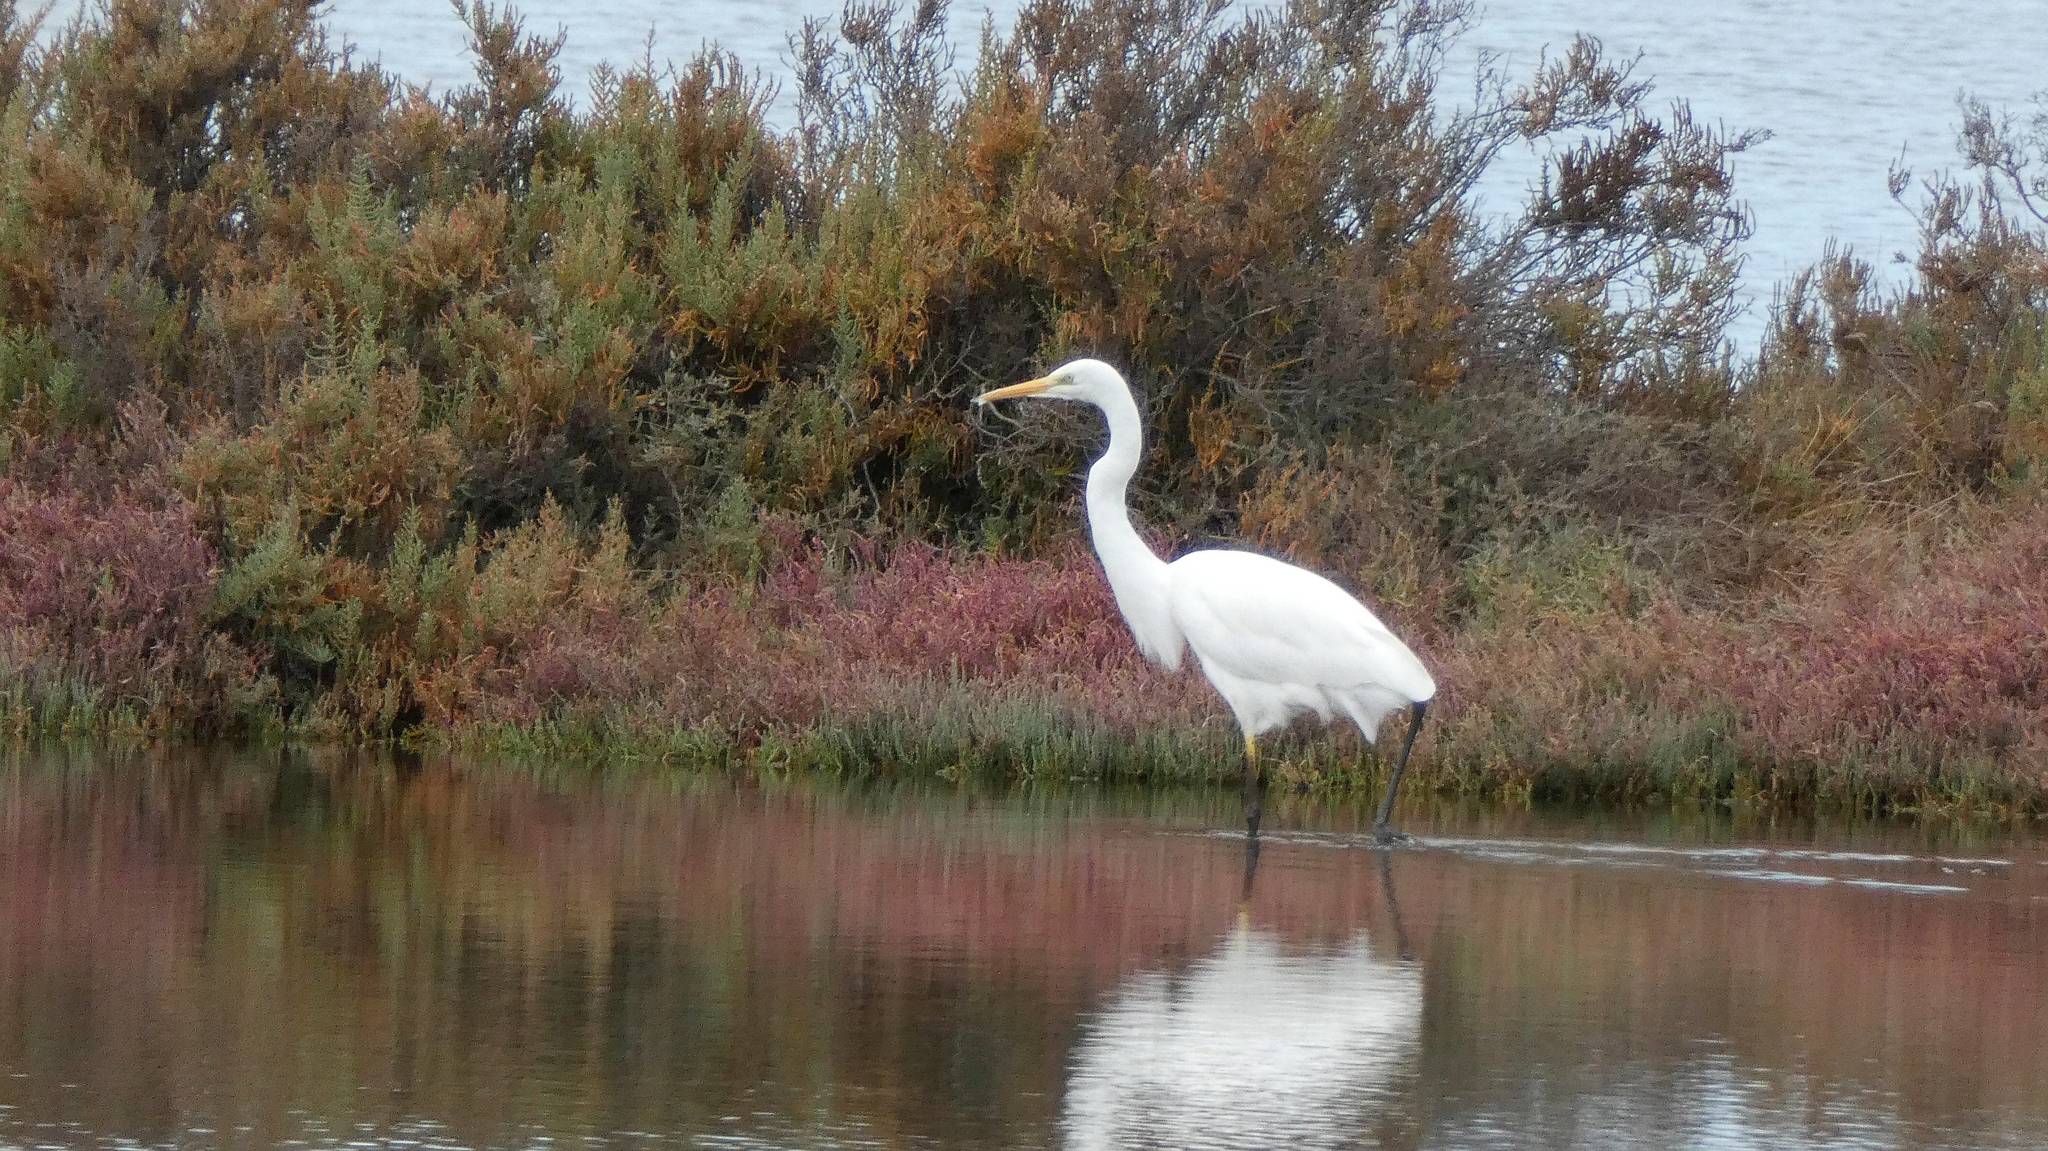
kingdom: Animalia
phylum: Chordata
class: Aves
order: Pelecaniformes
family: Ardeidae
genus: Ardea
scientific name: Ardea alba
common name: Great egret
